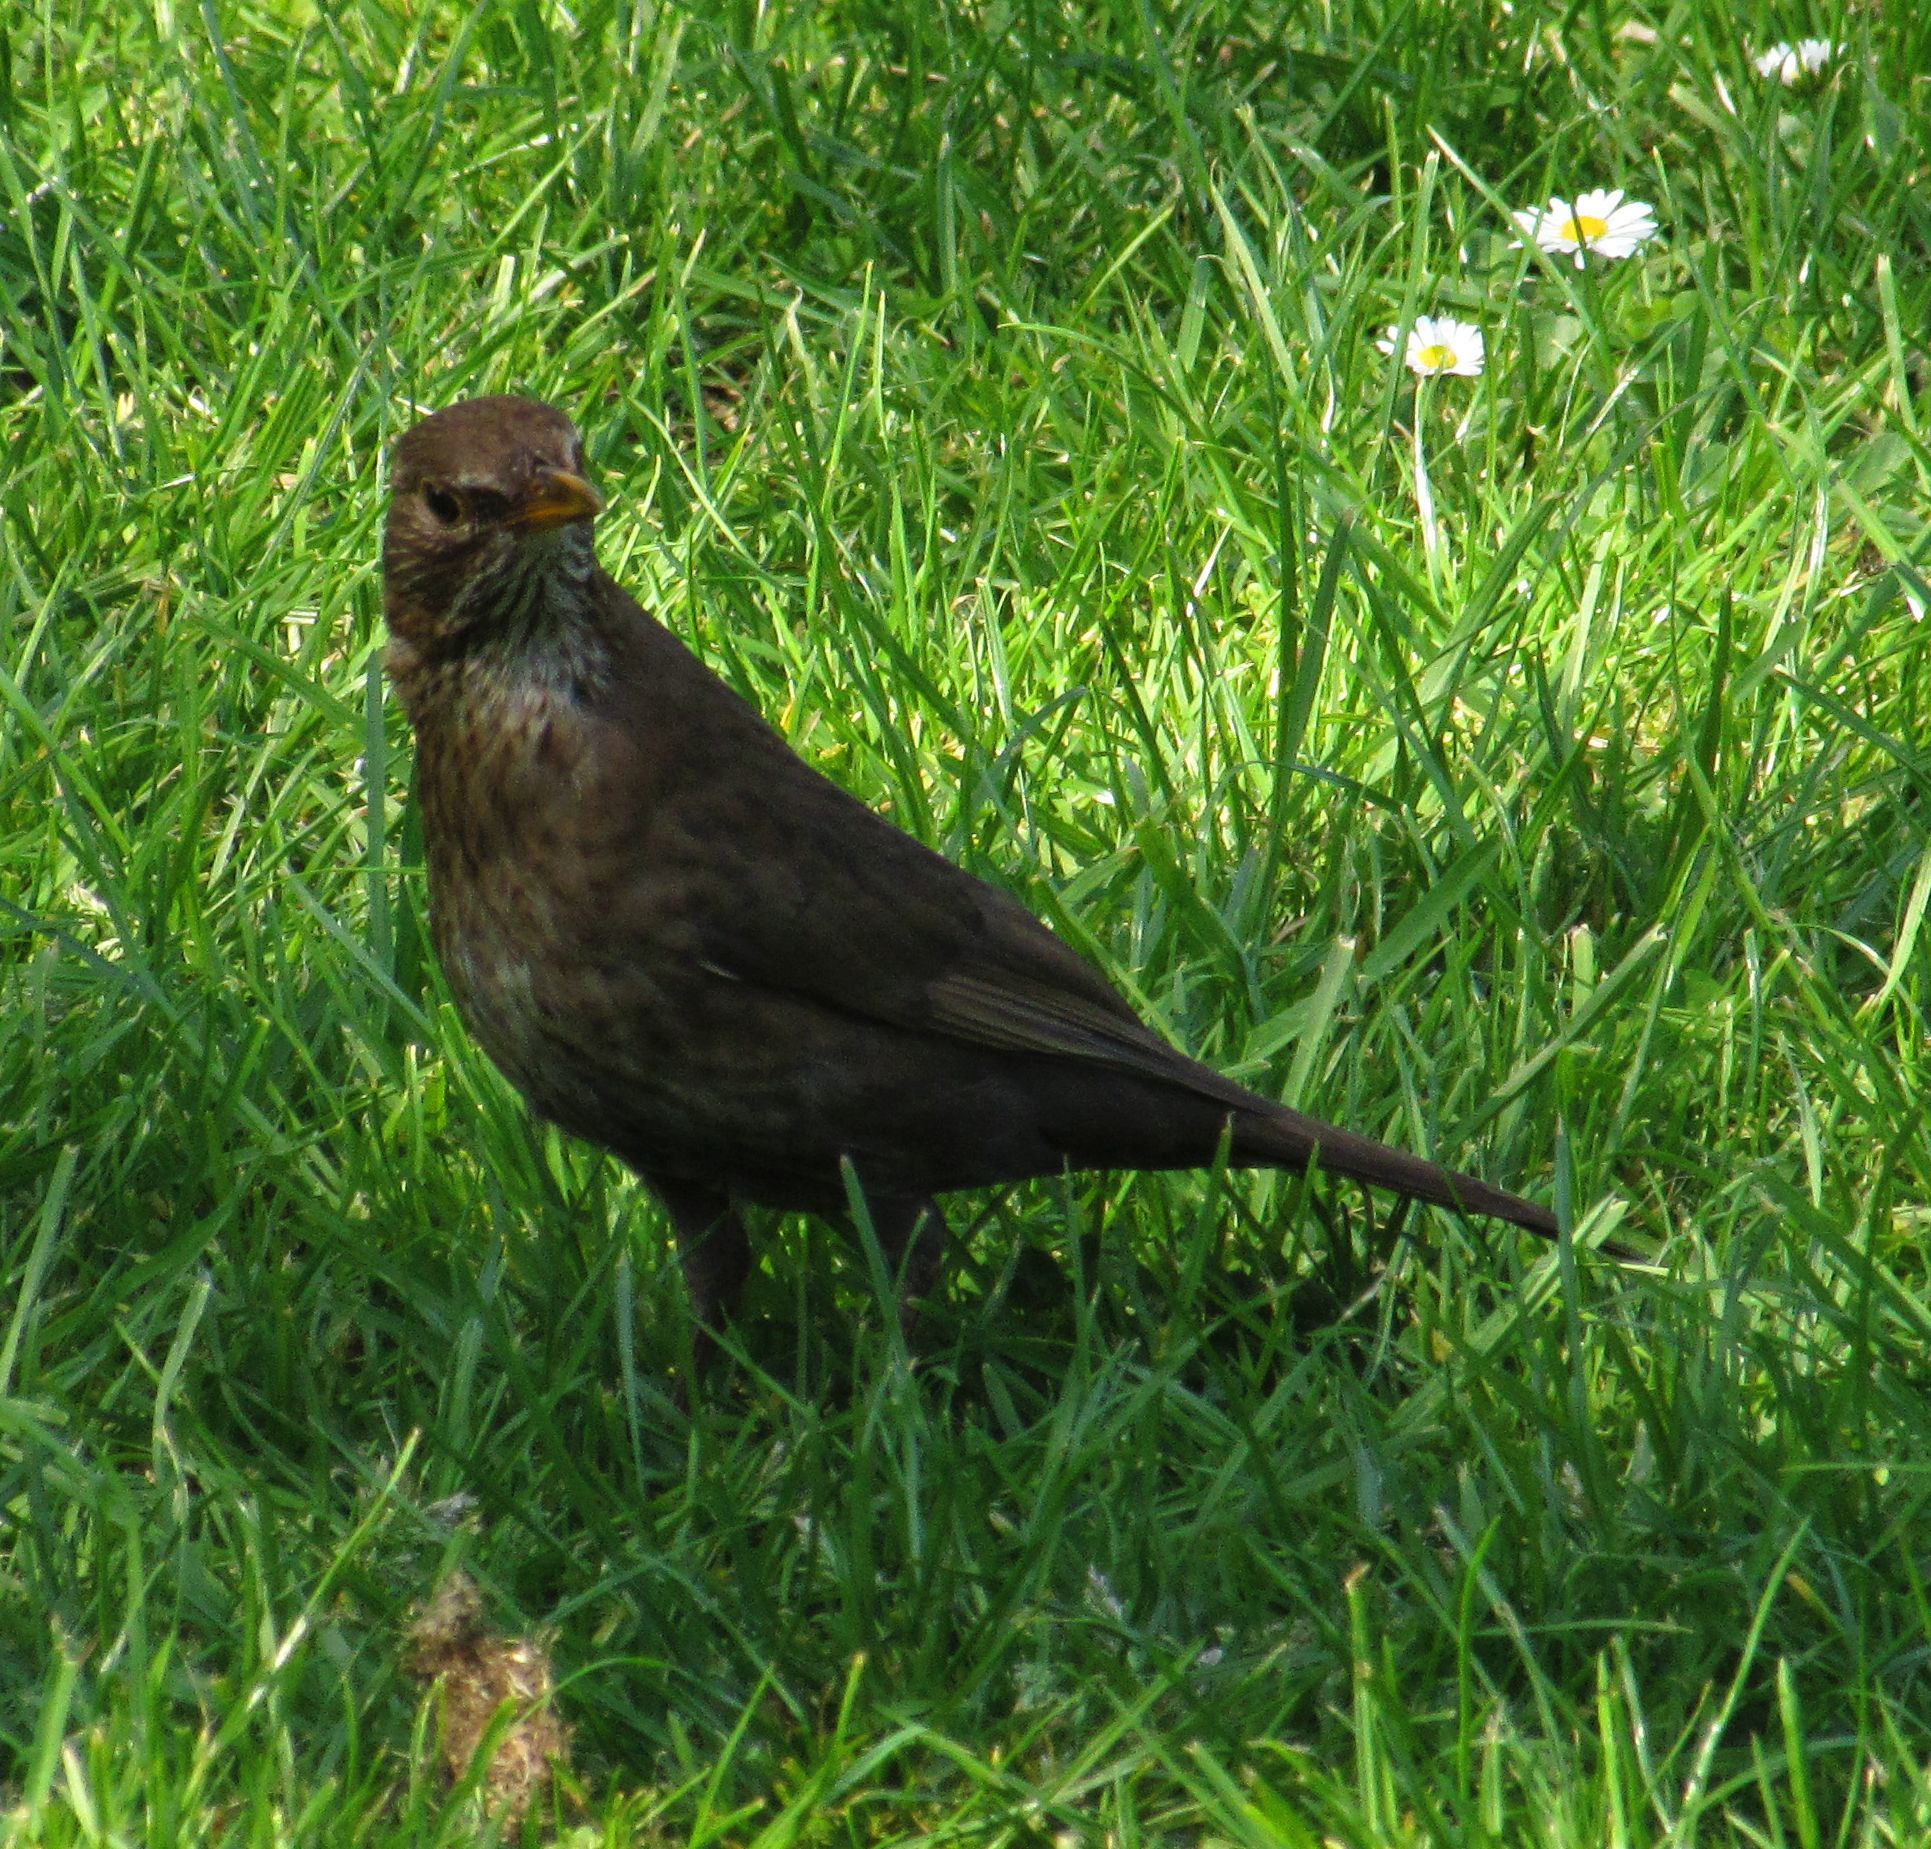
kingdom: Animalia
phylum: Chordata
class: Aves
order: Passeriformes
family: Turdidae
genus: Turdus
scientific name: Turdus merula
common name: Common blackbird
